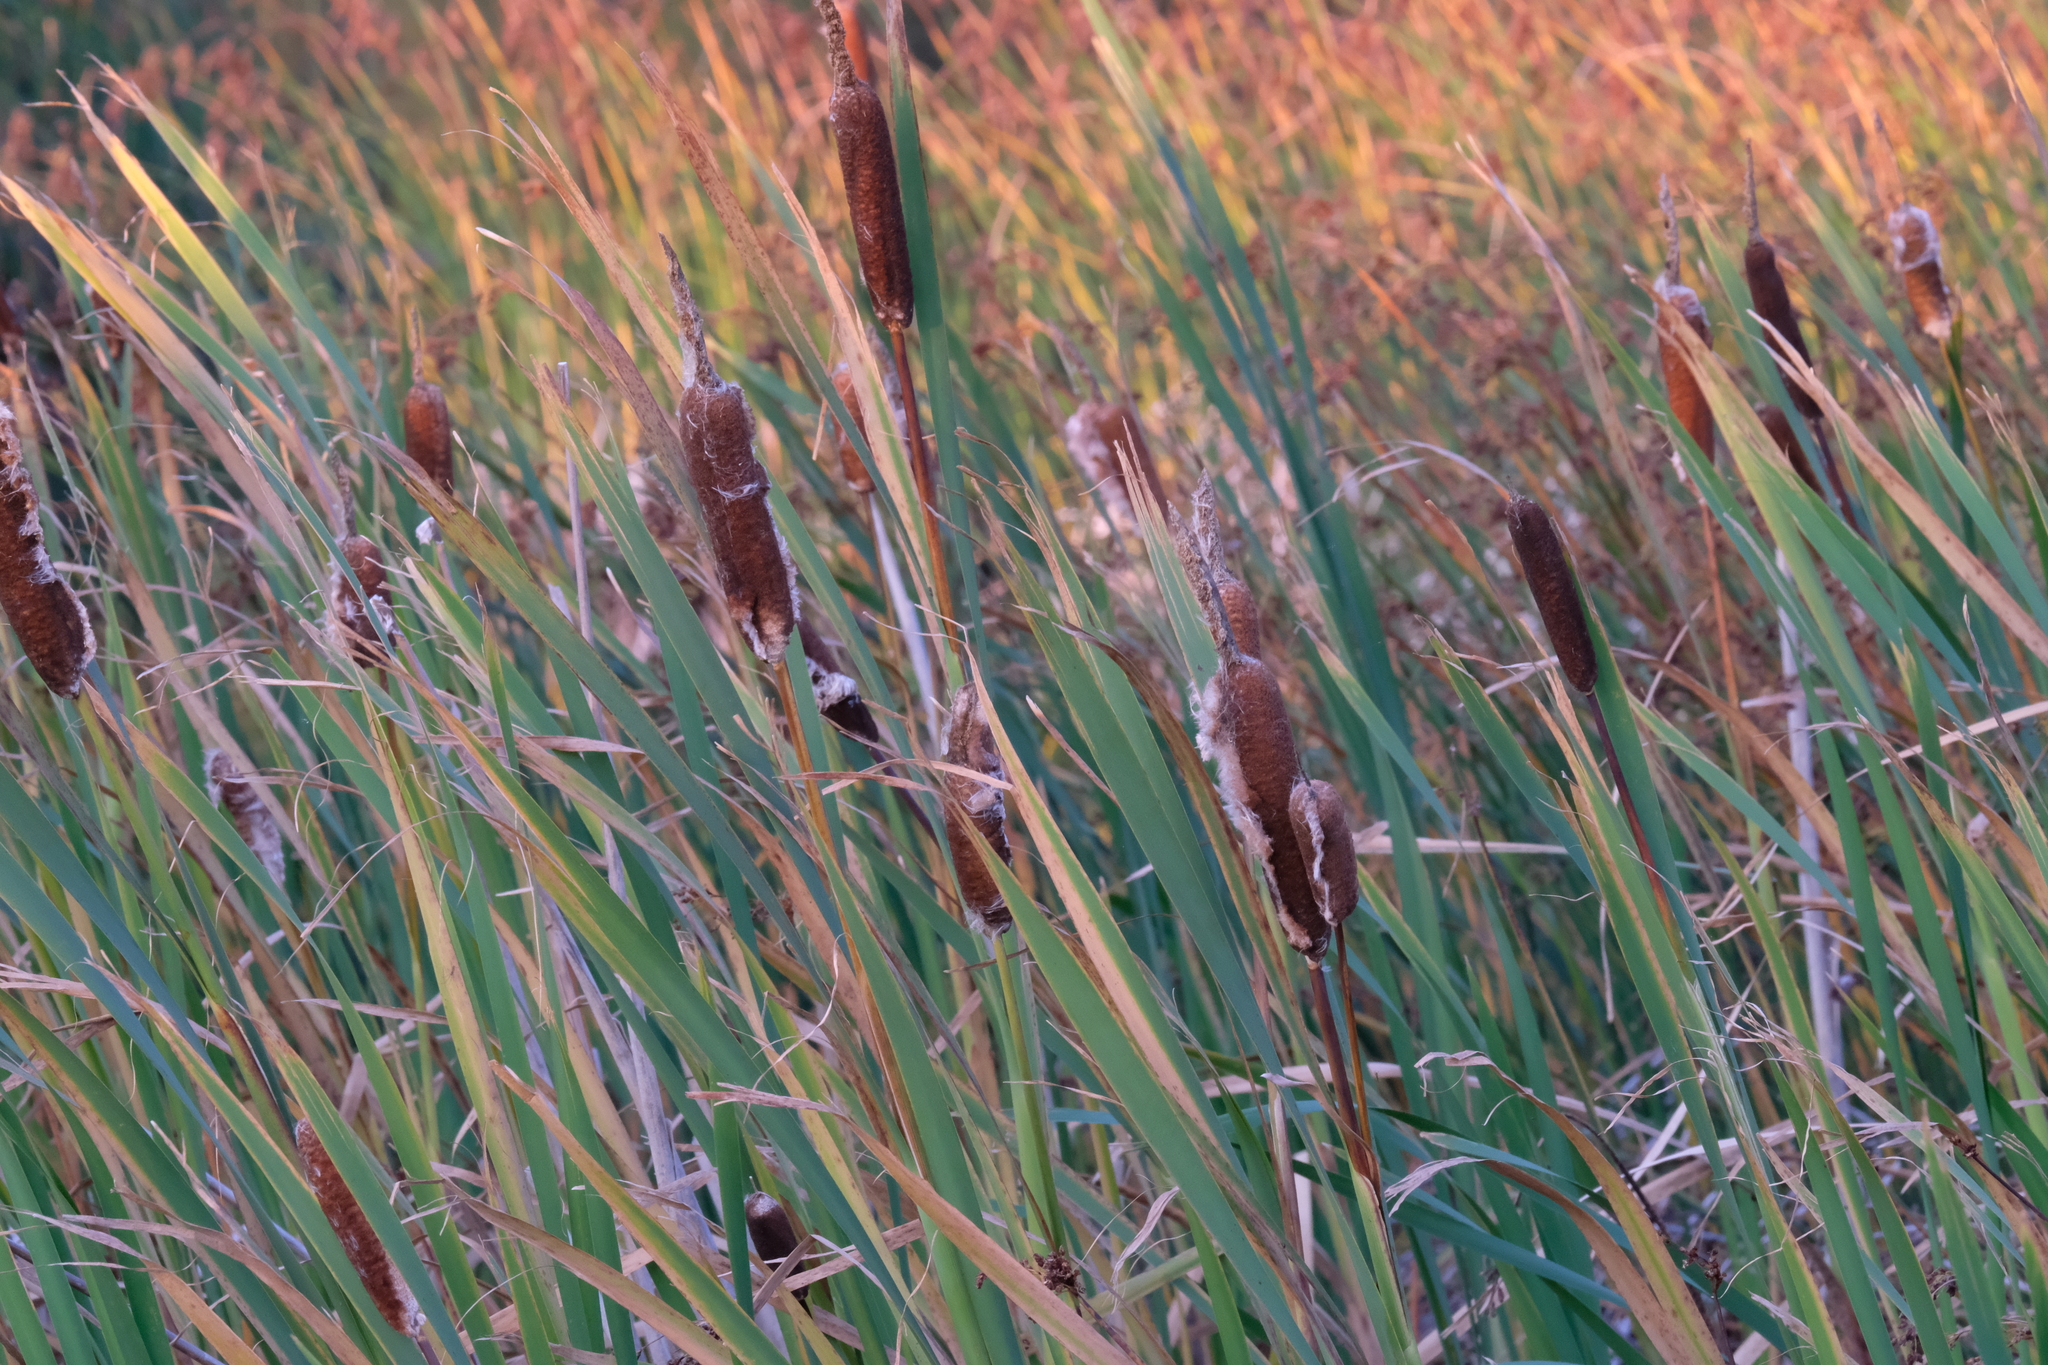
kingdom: Plantae
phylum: Tracheophyta
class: Liliopsida
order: Poales
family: Typhaceae
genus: Typha
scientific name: Typha latifolia
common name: Broadleaf cattail
